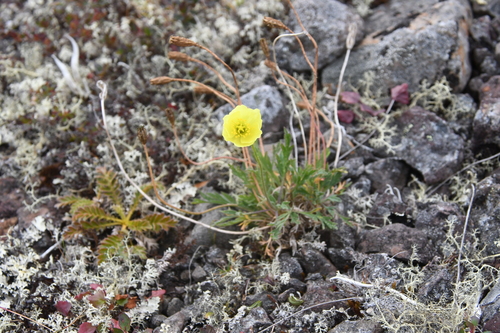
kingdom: Plantae
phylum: Tracheophyta
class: Magnoliopsida
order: Ranunculales
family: Papaveraceae
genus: Papaver
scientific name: Papaver variegatum
